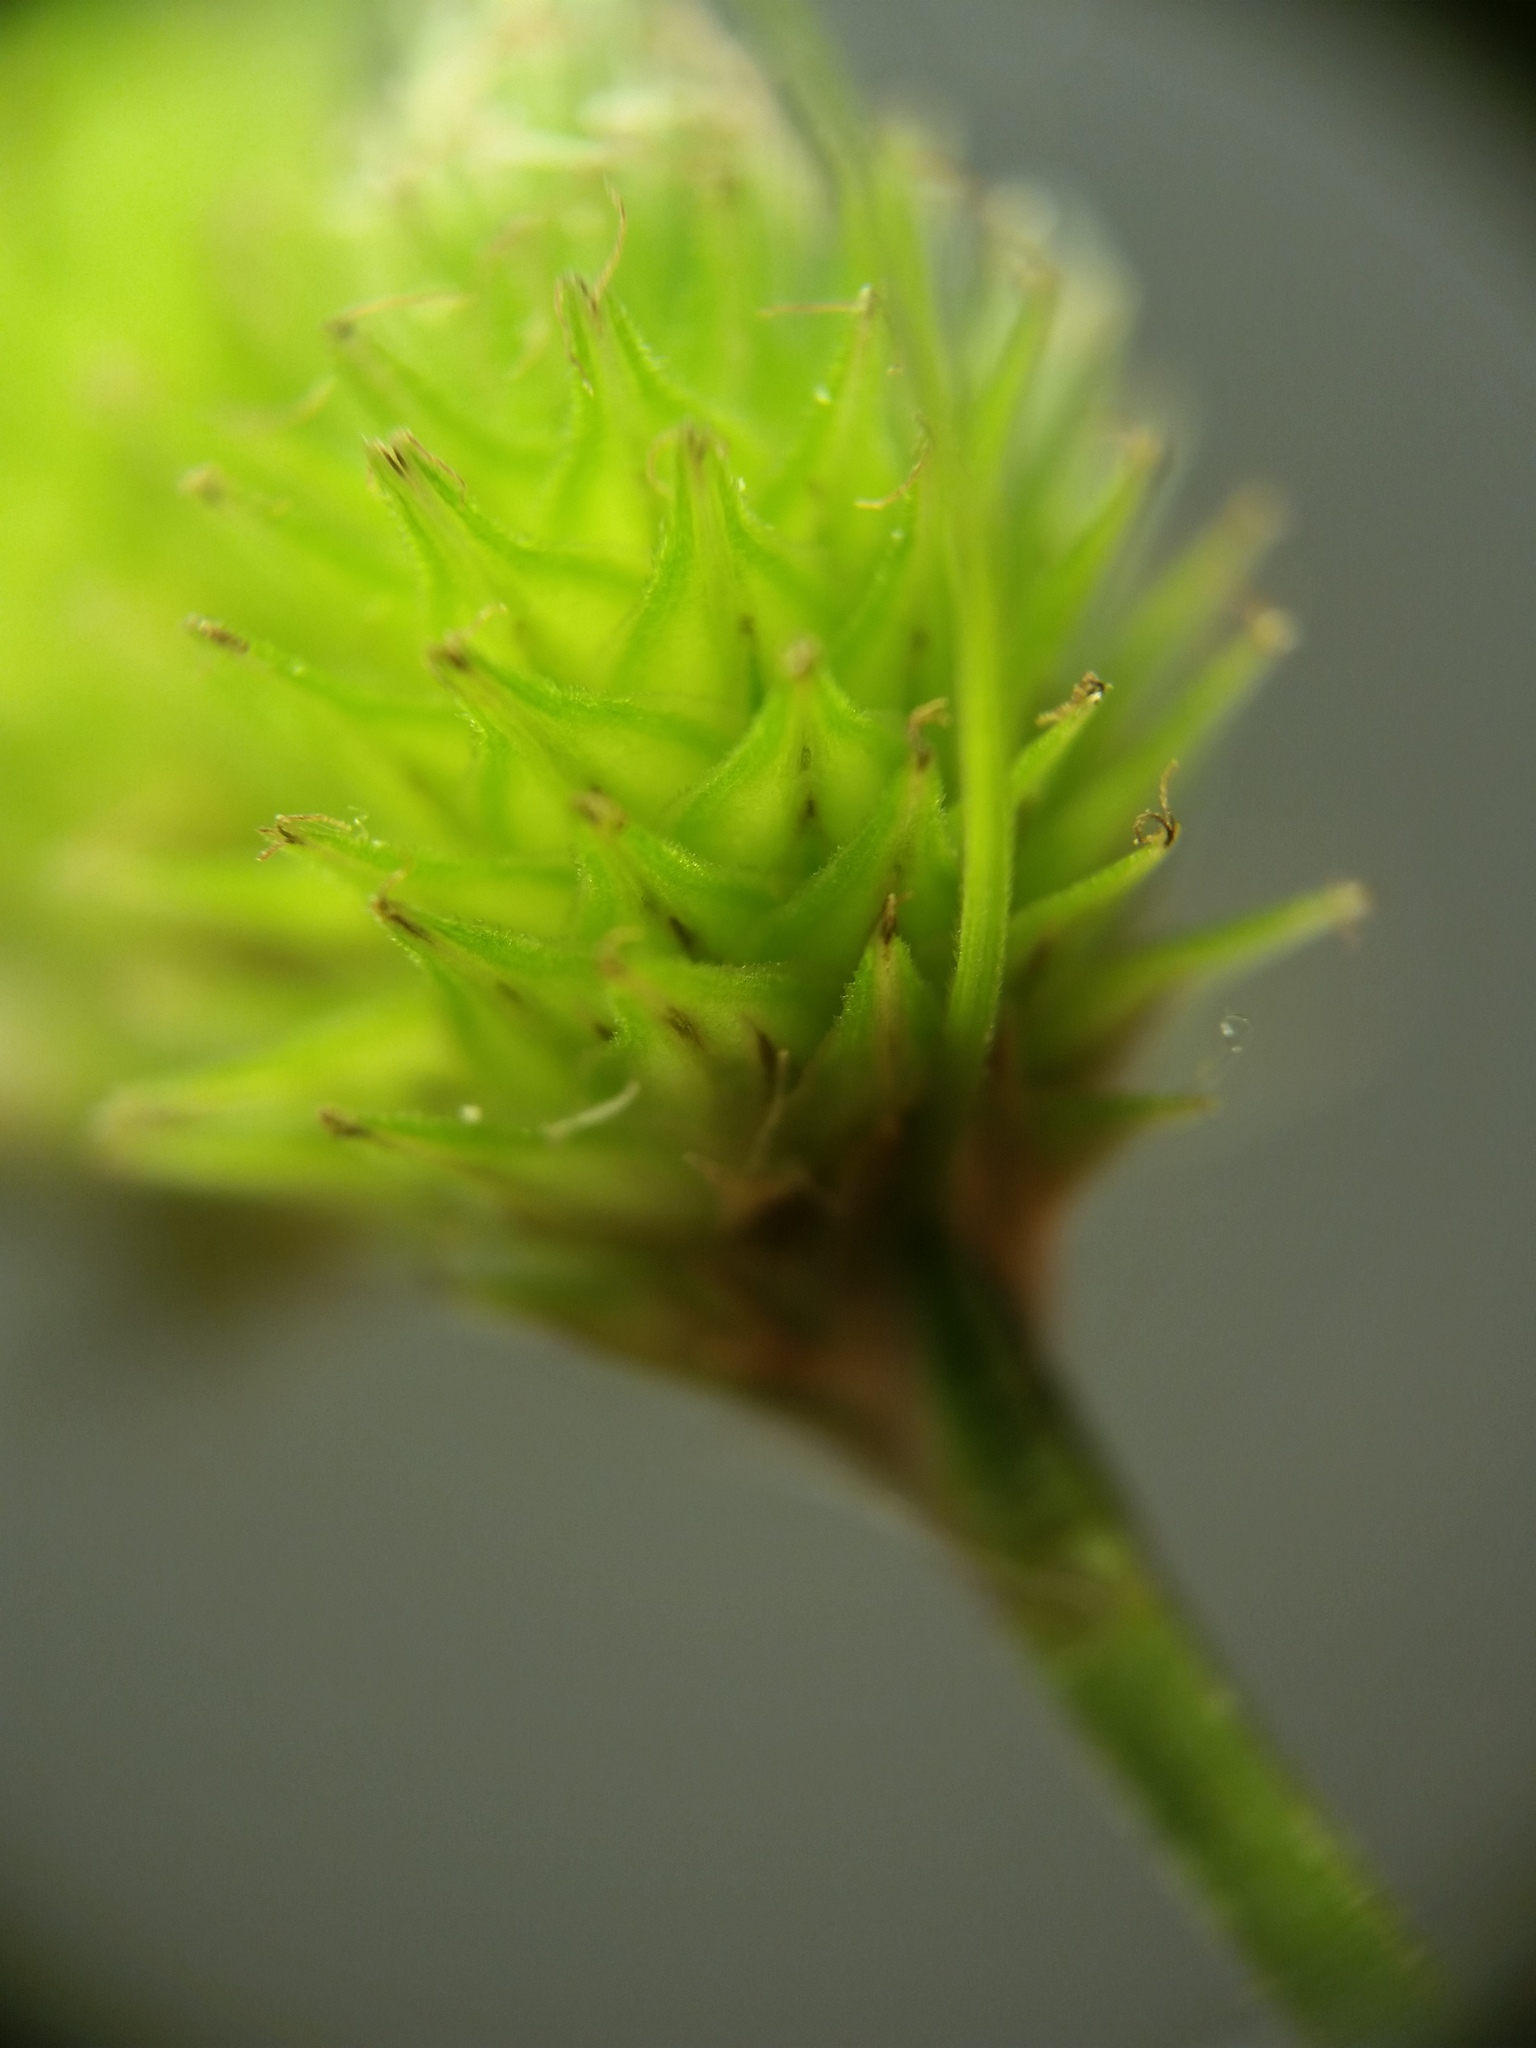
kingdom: Plantae
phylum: Tracheophyta
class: Liliopsida
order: Poales
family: Cyperaceae
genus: Carex
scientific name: Carex cristatella
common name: Crested oval sedge
